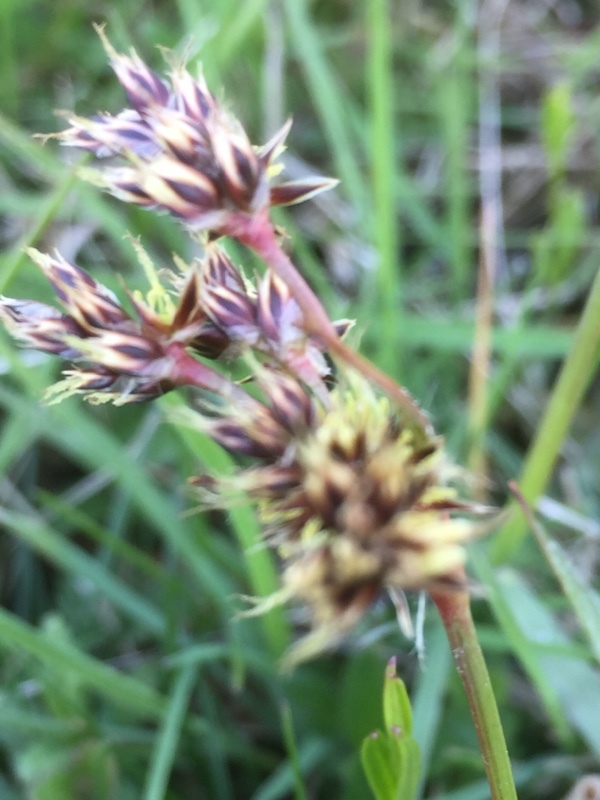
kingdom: Plantae
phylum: Tracheophyta
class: Liliopsida
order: Poales
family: Juncaceae
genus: Luzula
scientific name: Luzula campestris
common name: Field wood-rush
